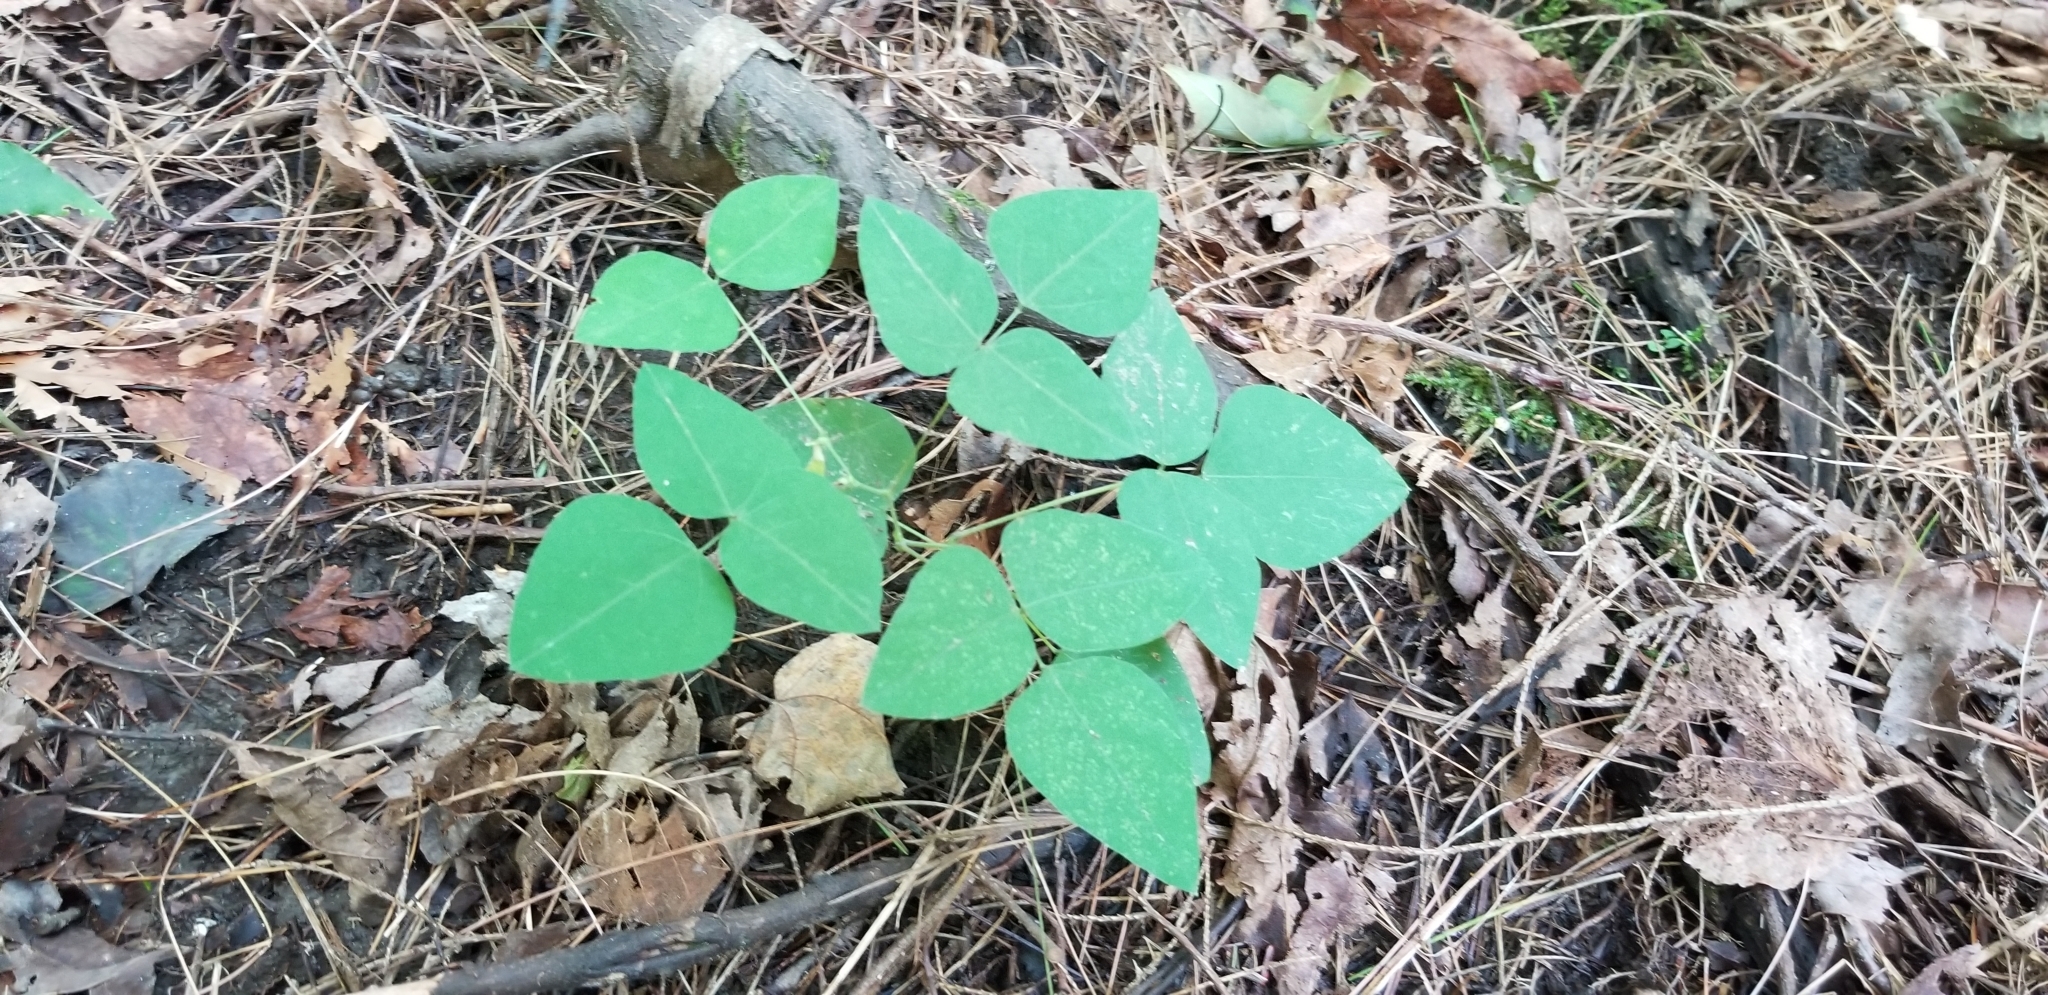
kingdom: Plantae
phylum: Tracheophyta
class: Magnoliopsida
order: Fabales
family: Fabaceae
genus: Amphicarpaea
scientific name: Amphicarpaea bracteata
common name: American hog peanut
